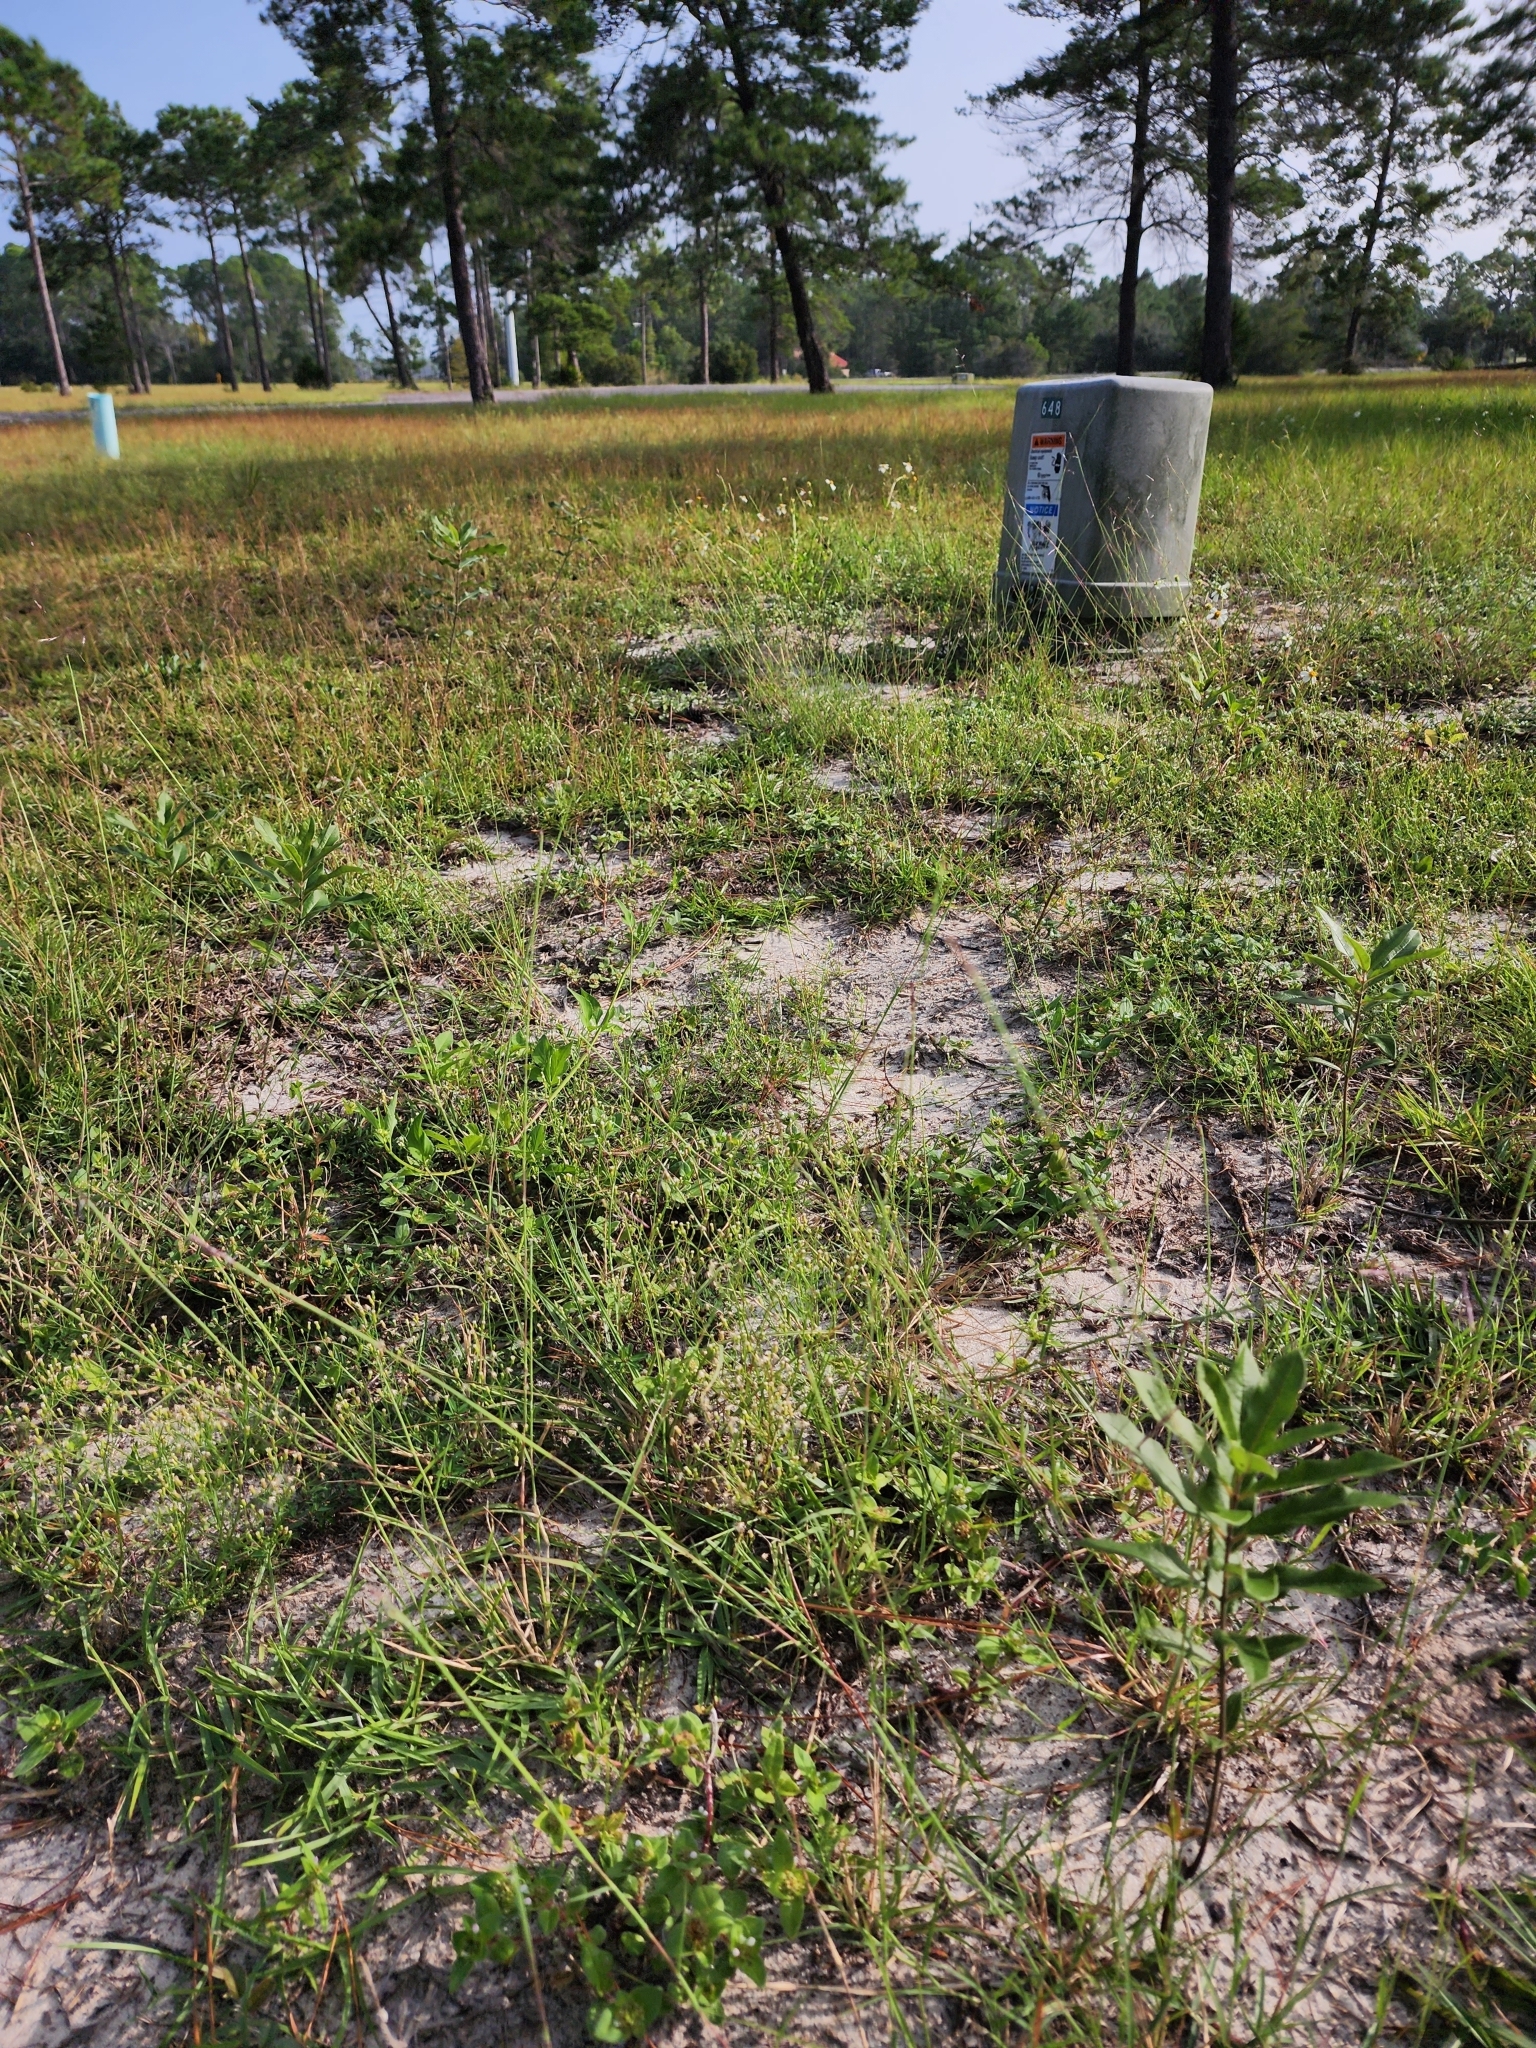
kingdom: Animalia
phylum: Arthropoda
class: Insecta
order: Lepidoptera
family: Nymphalidae
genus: Danaus
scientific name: Danaus plexippus
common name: Monarch
